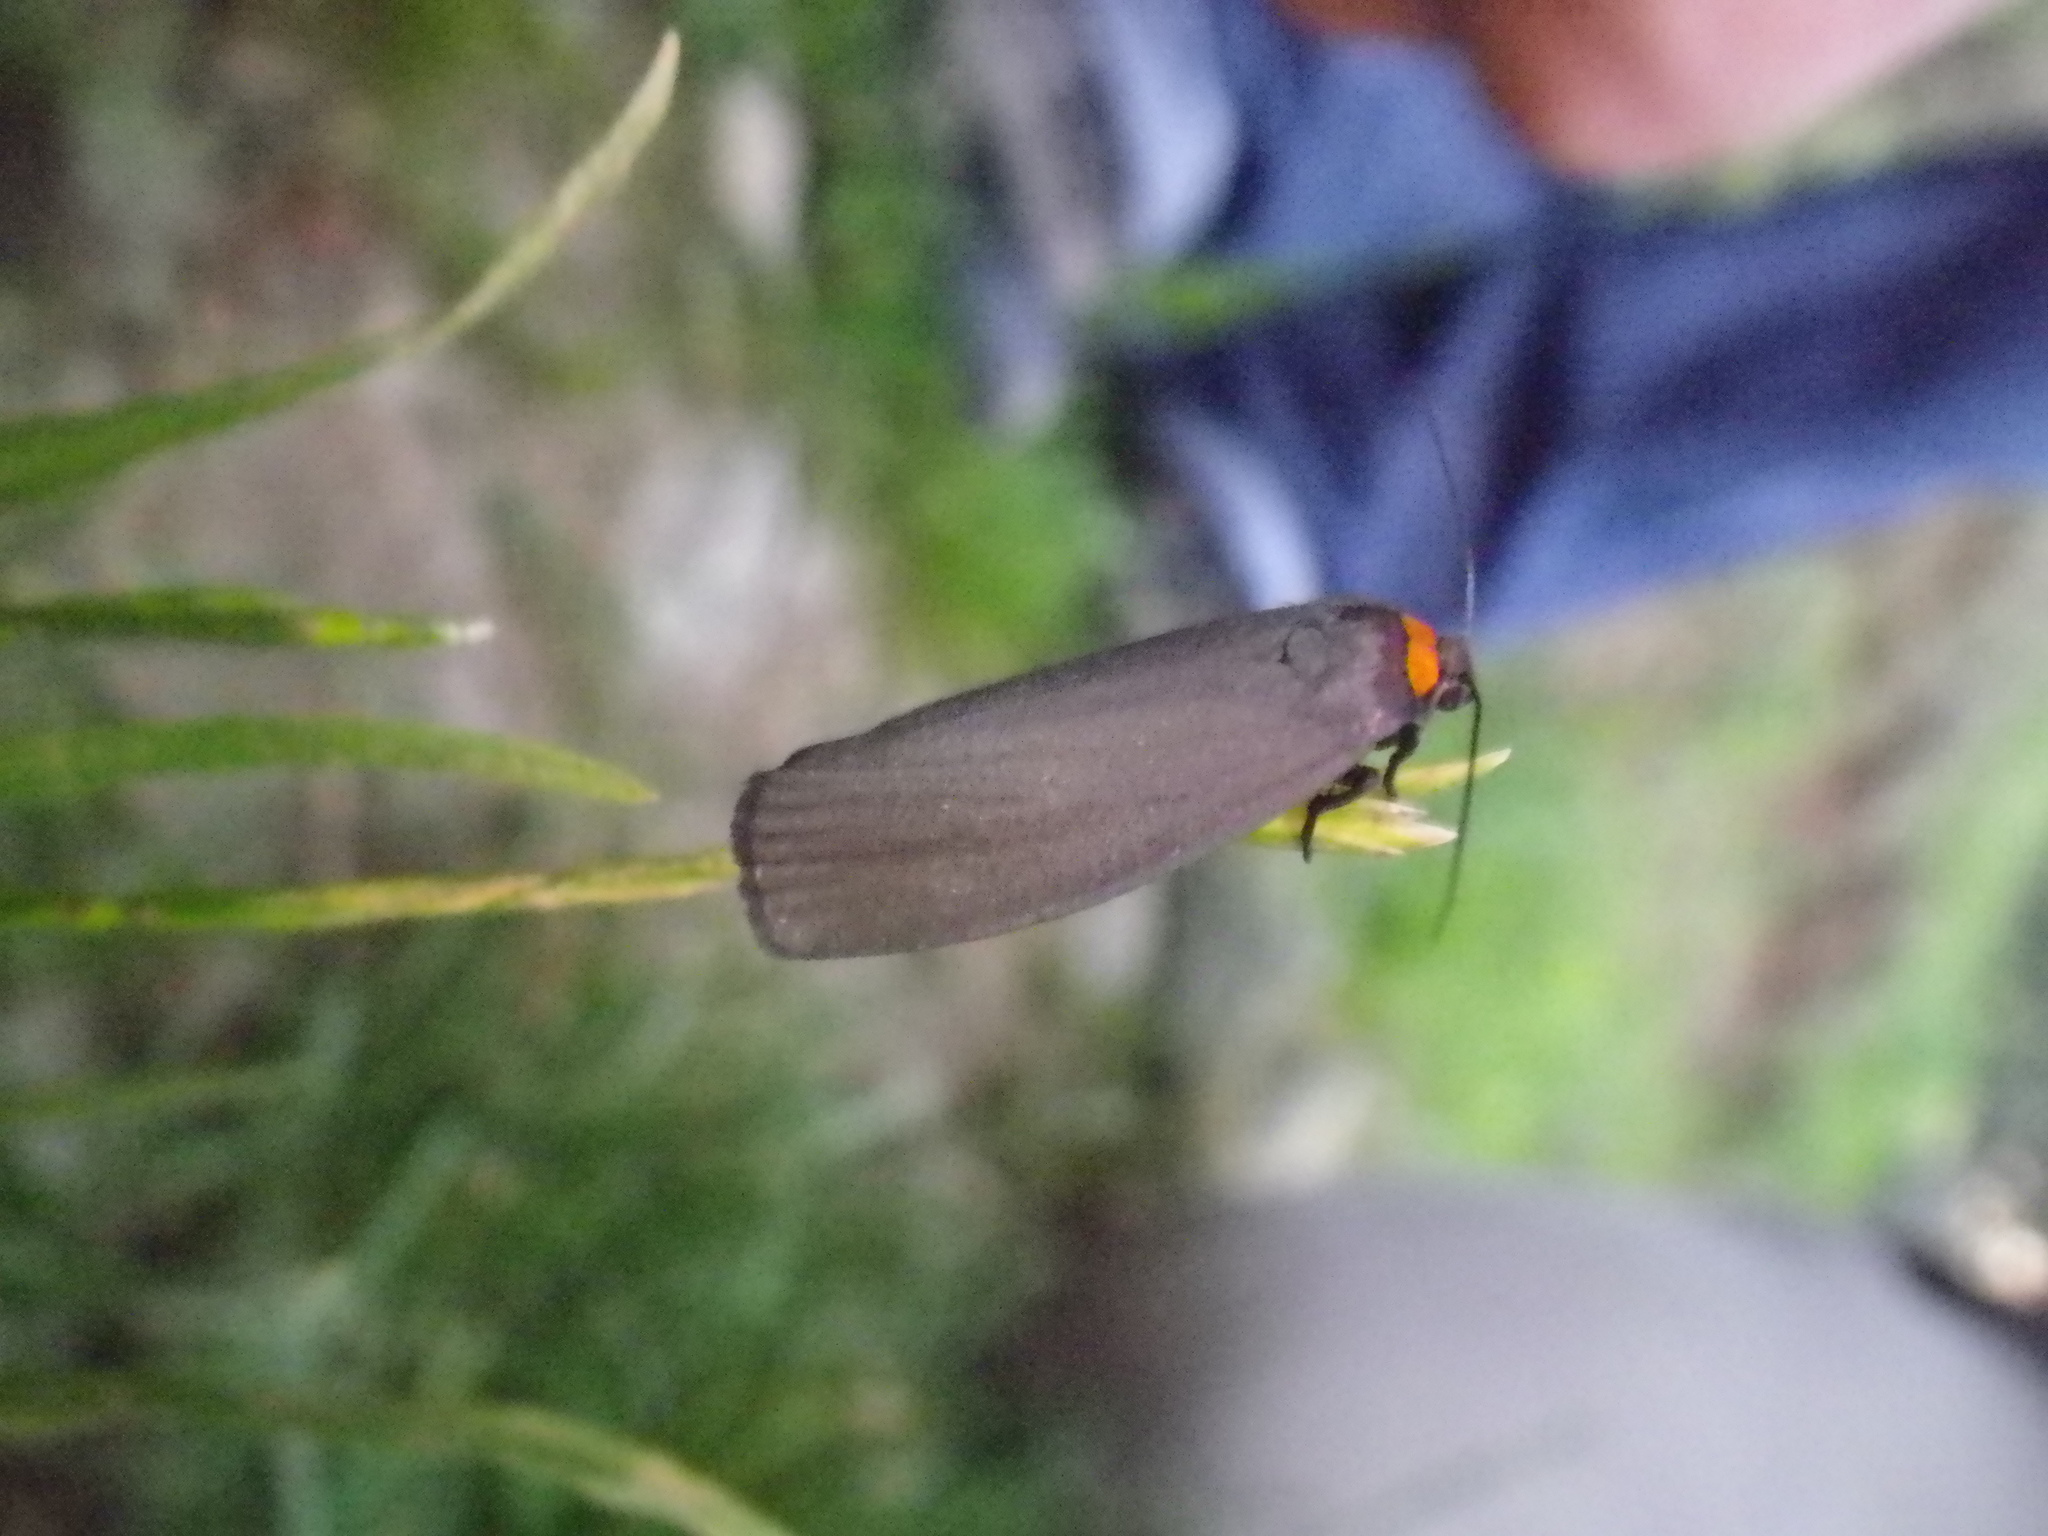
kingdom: Animalia
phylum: Arthropoda
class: Insecta
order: Lepidoptera
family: Erebidae
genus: Atolmis
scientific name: Atolmis rubricollis
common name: Red-necked footman
